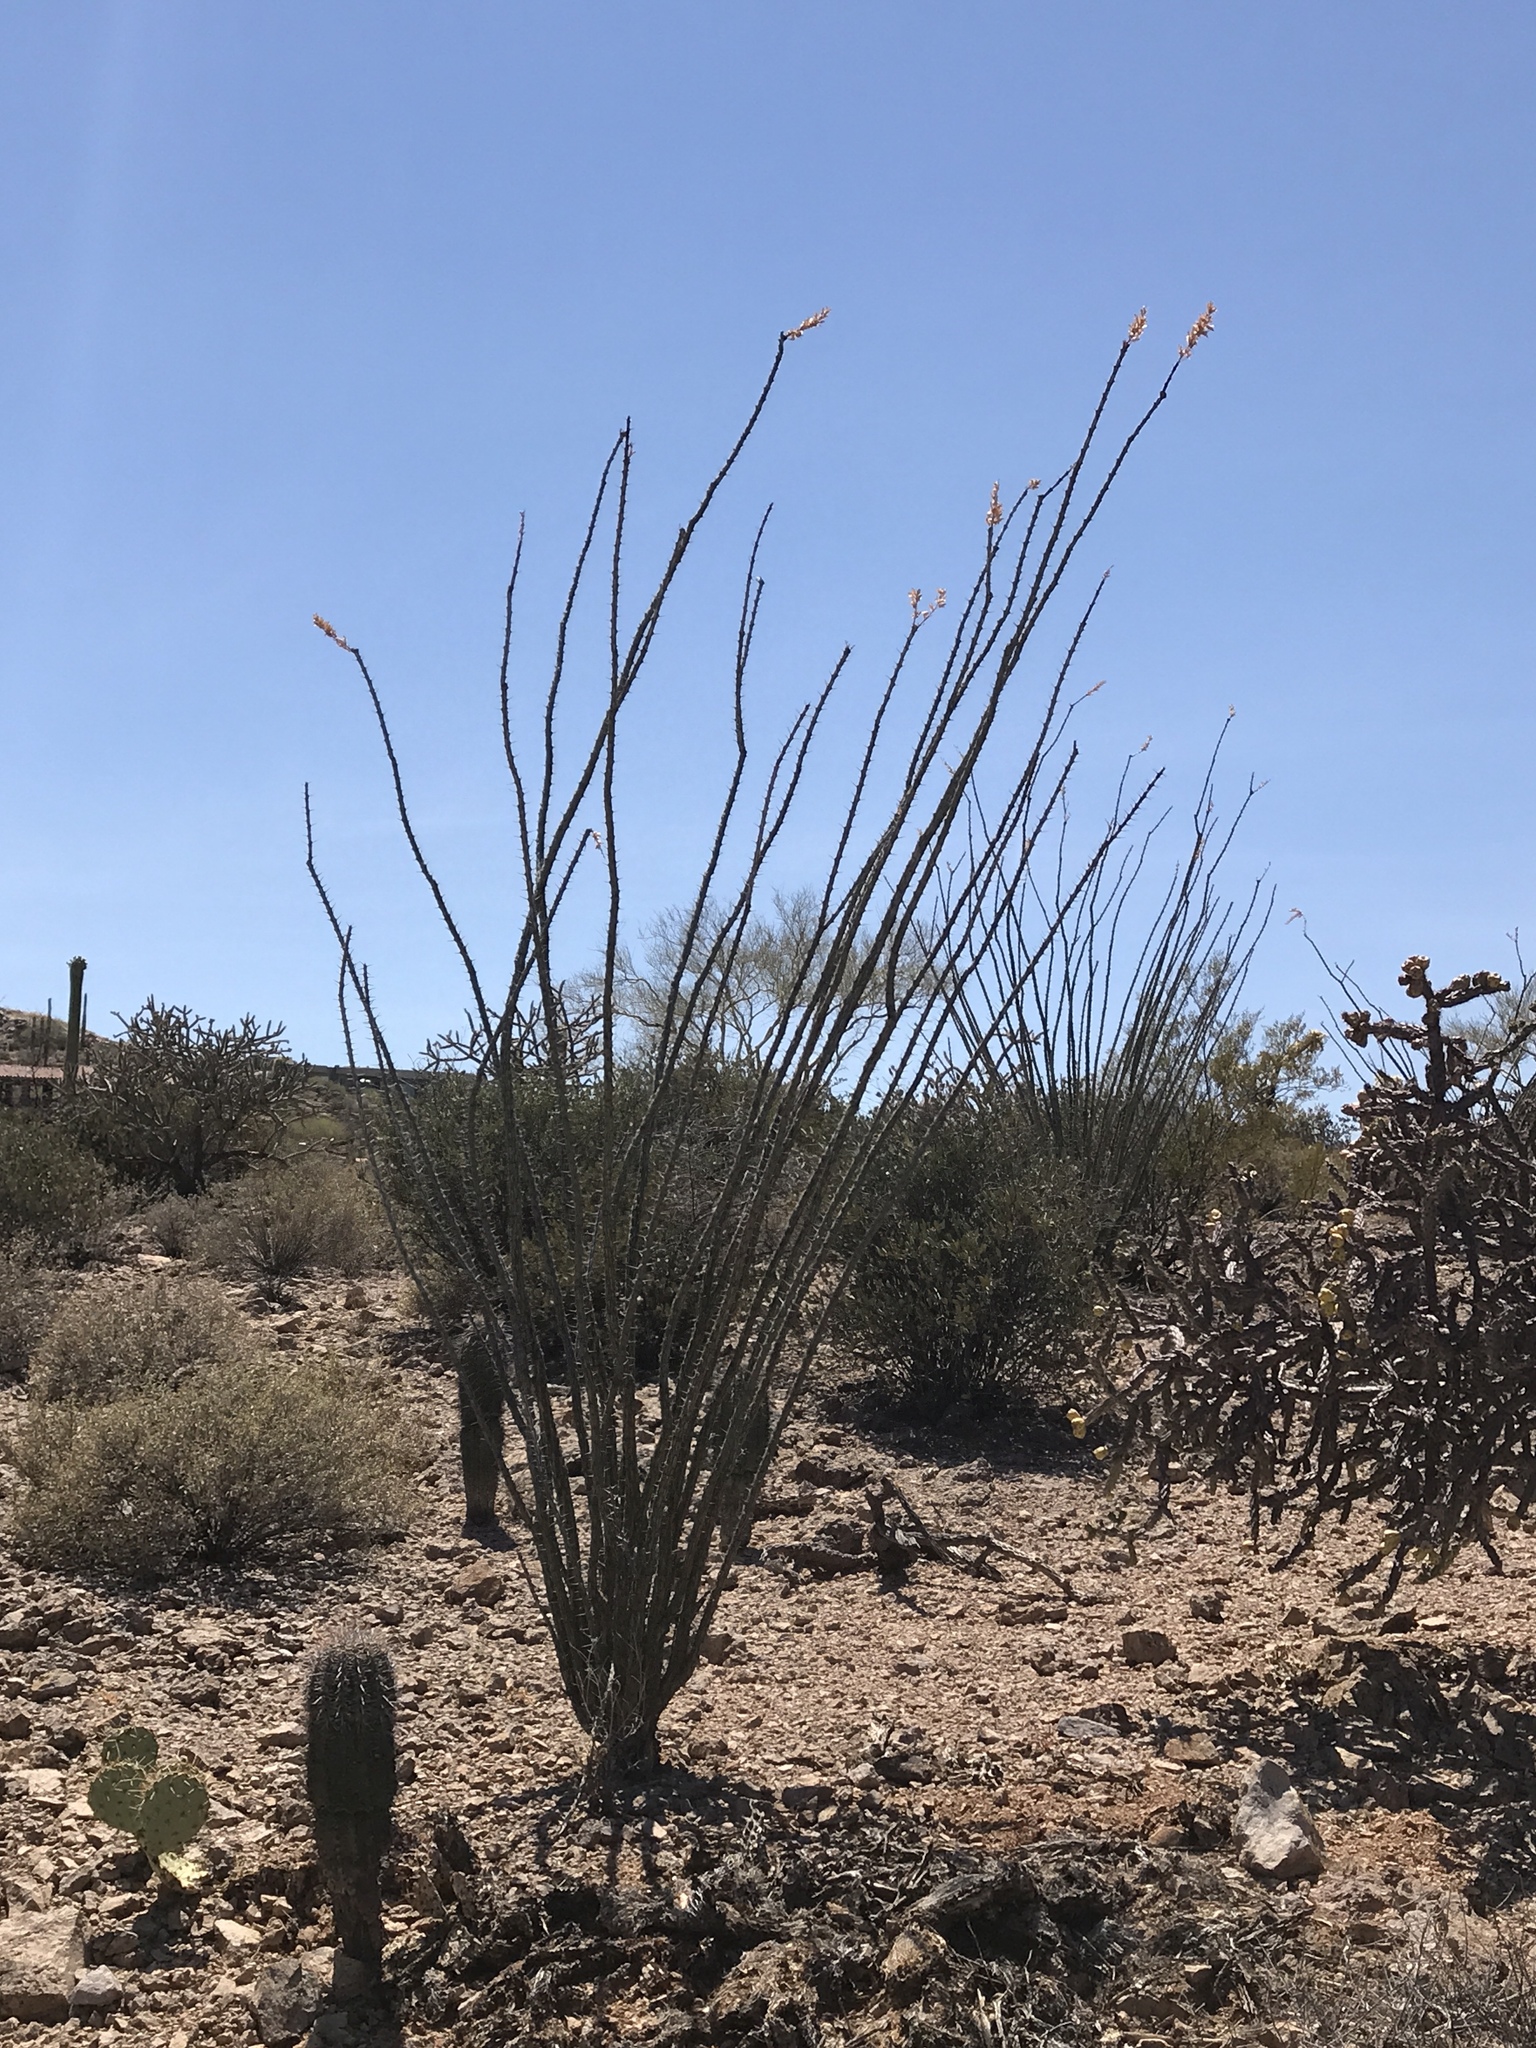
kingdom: Plantae
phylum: Tracheophyta
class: Magnoliopsida
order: Ericales
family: Fouquieriaceae
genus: Fouquieria
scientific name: Fouquieria splendens
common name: Vine-cactus
